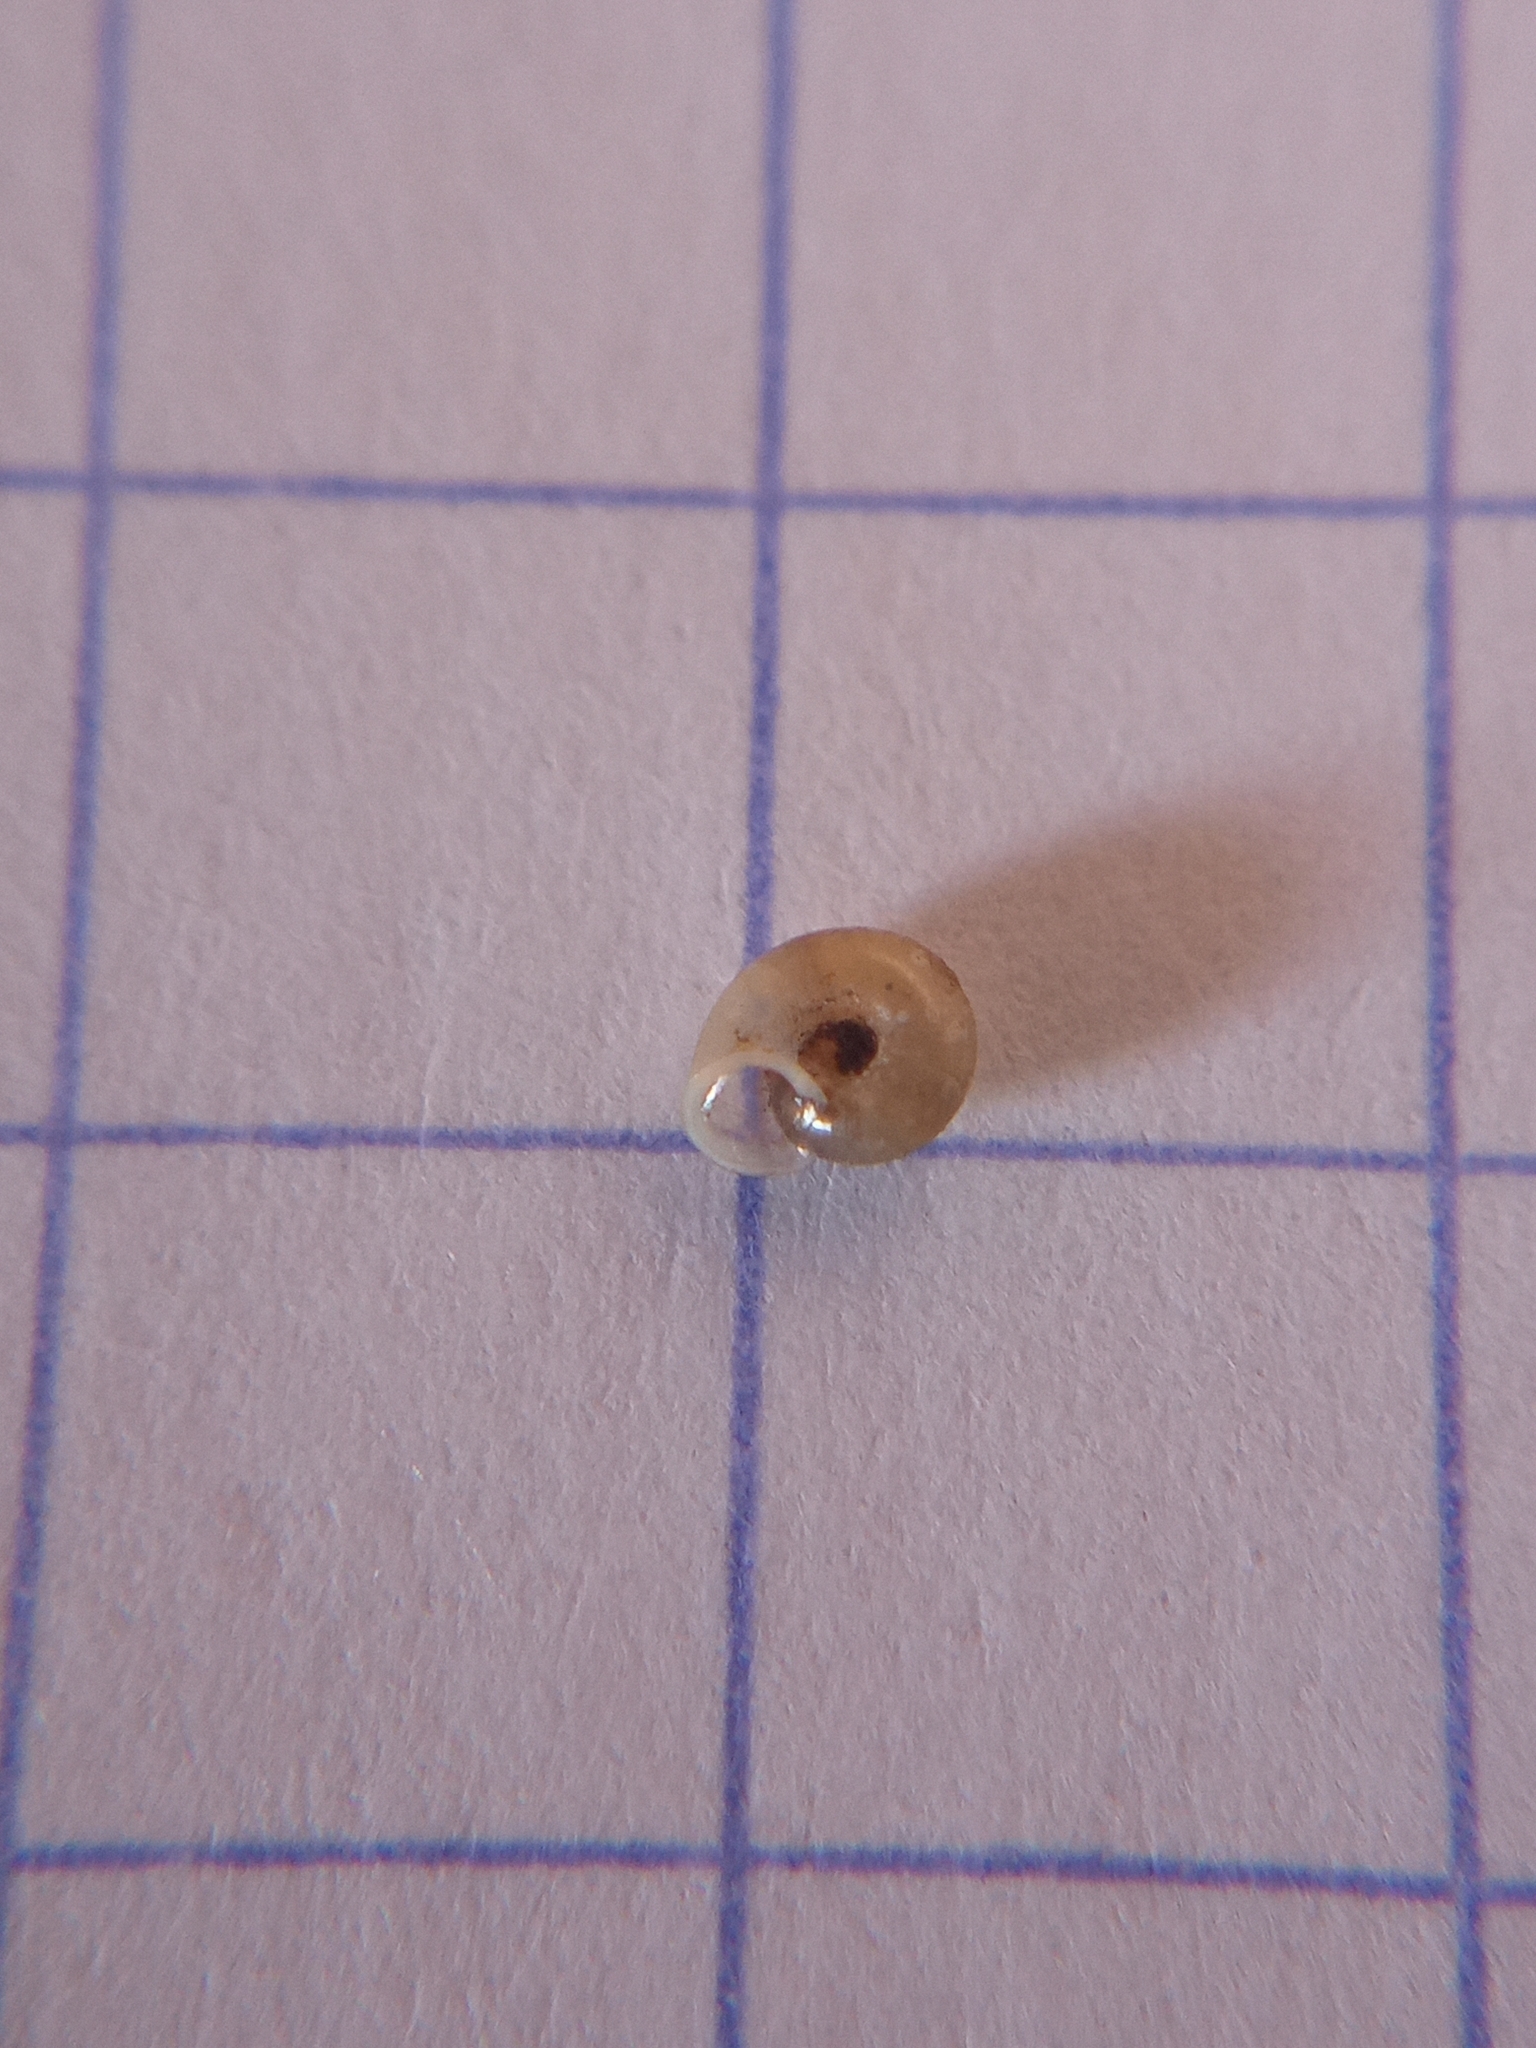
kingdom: Animalia
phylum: Mollusca
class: Gastropoda
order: Stylommatophora
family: Valloniidae
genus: Vallonia
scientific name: Vallonia excentrica
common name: Eccentric grass snail
